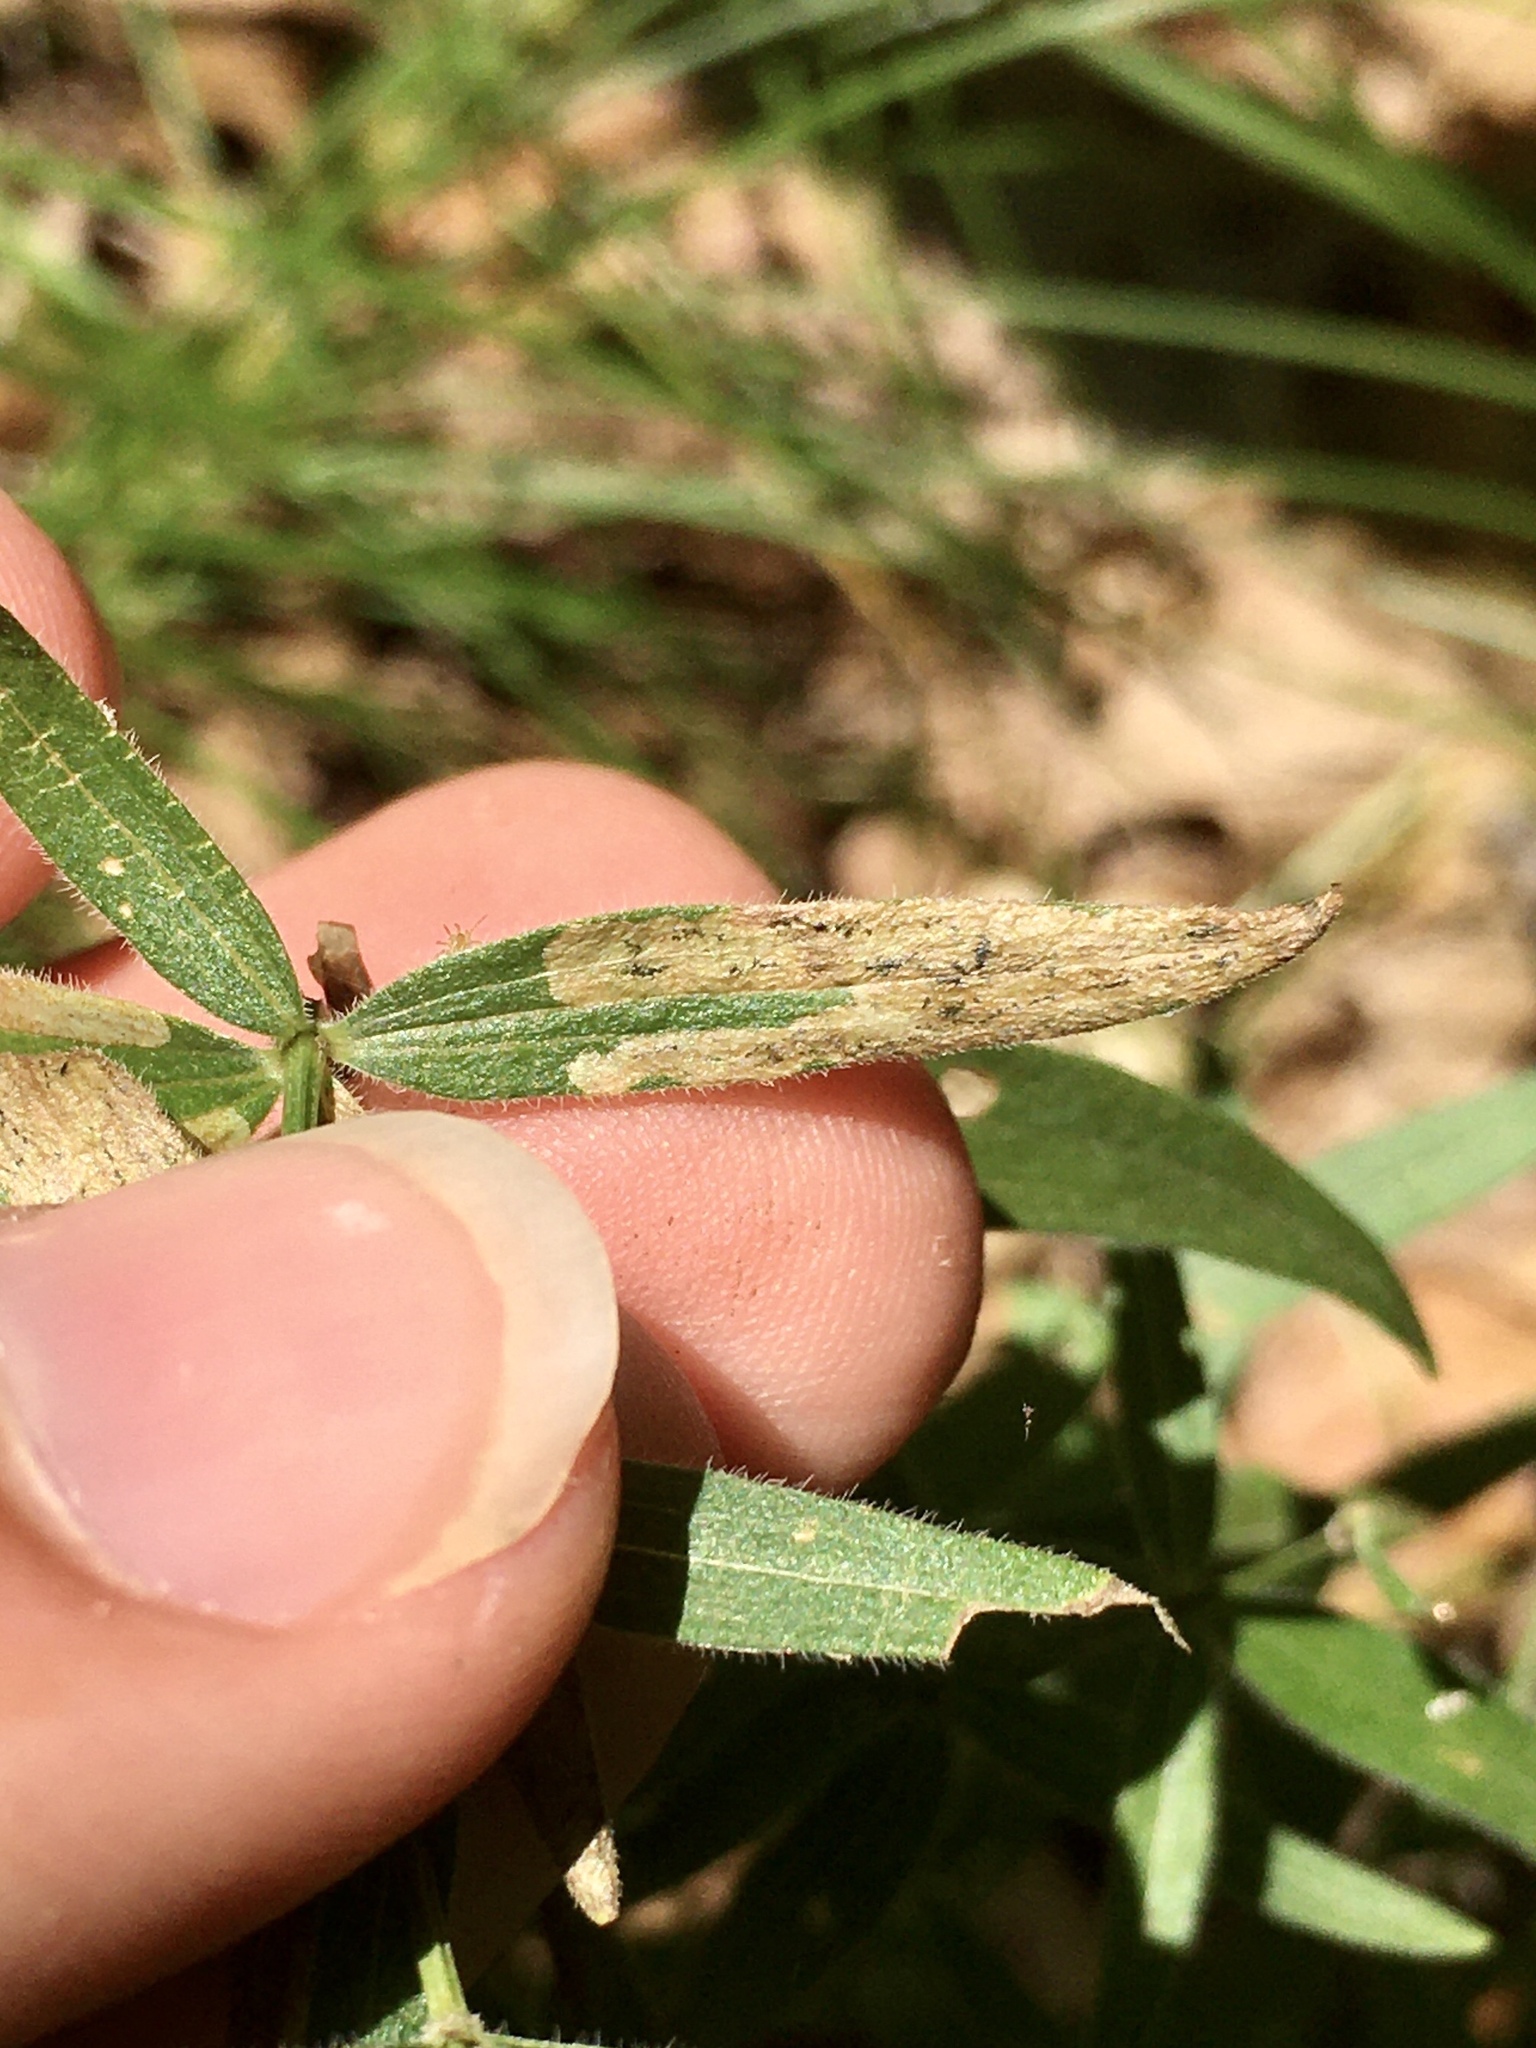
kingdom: Animalia
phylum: Arthropoda
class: Insecta
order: Diptera
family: Agromyzidae
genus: Liriomyza
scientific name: Liriomyza galiivora
